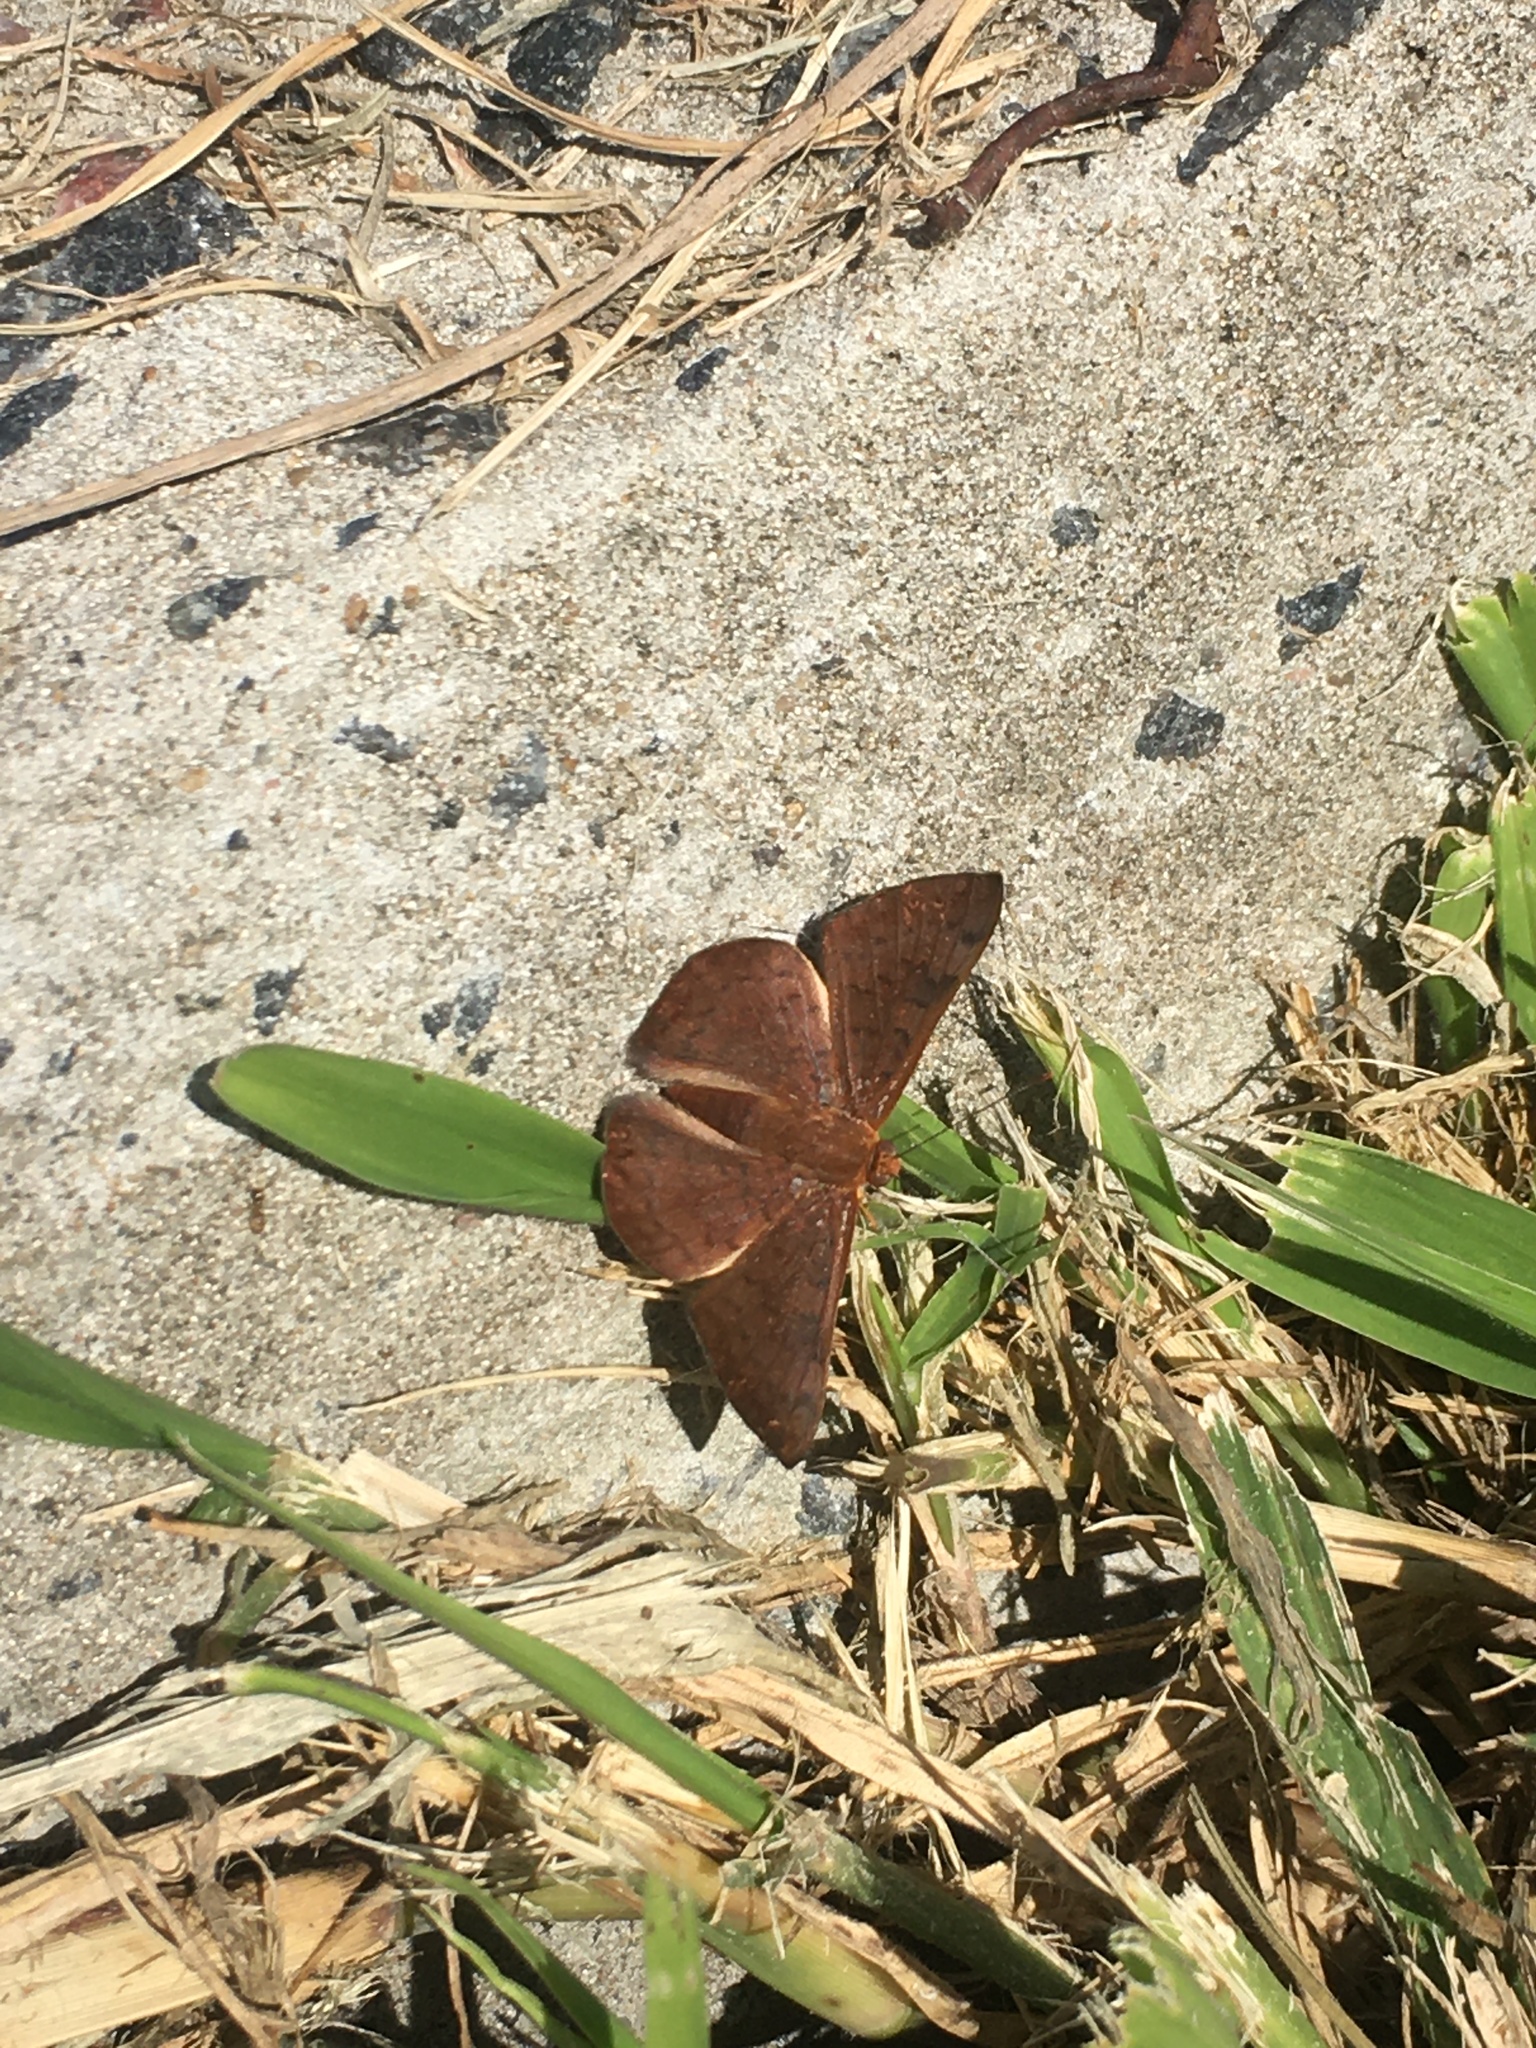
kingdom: Animalia
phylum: Arthropoda
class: Insecta
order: Lepidoptera
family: Lycaenidae
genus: Emesis
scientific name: Emesis russula
